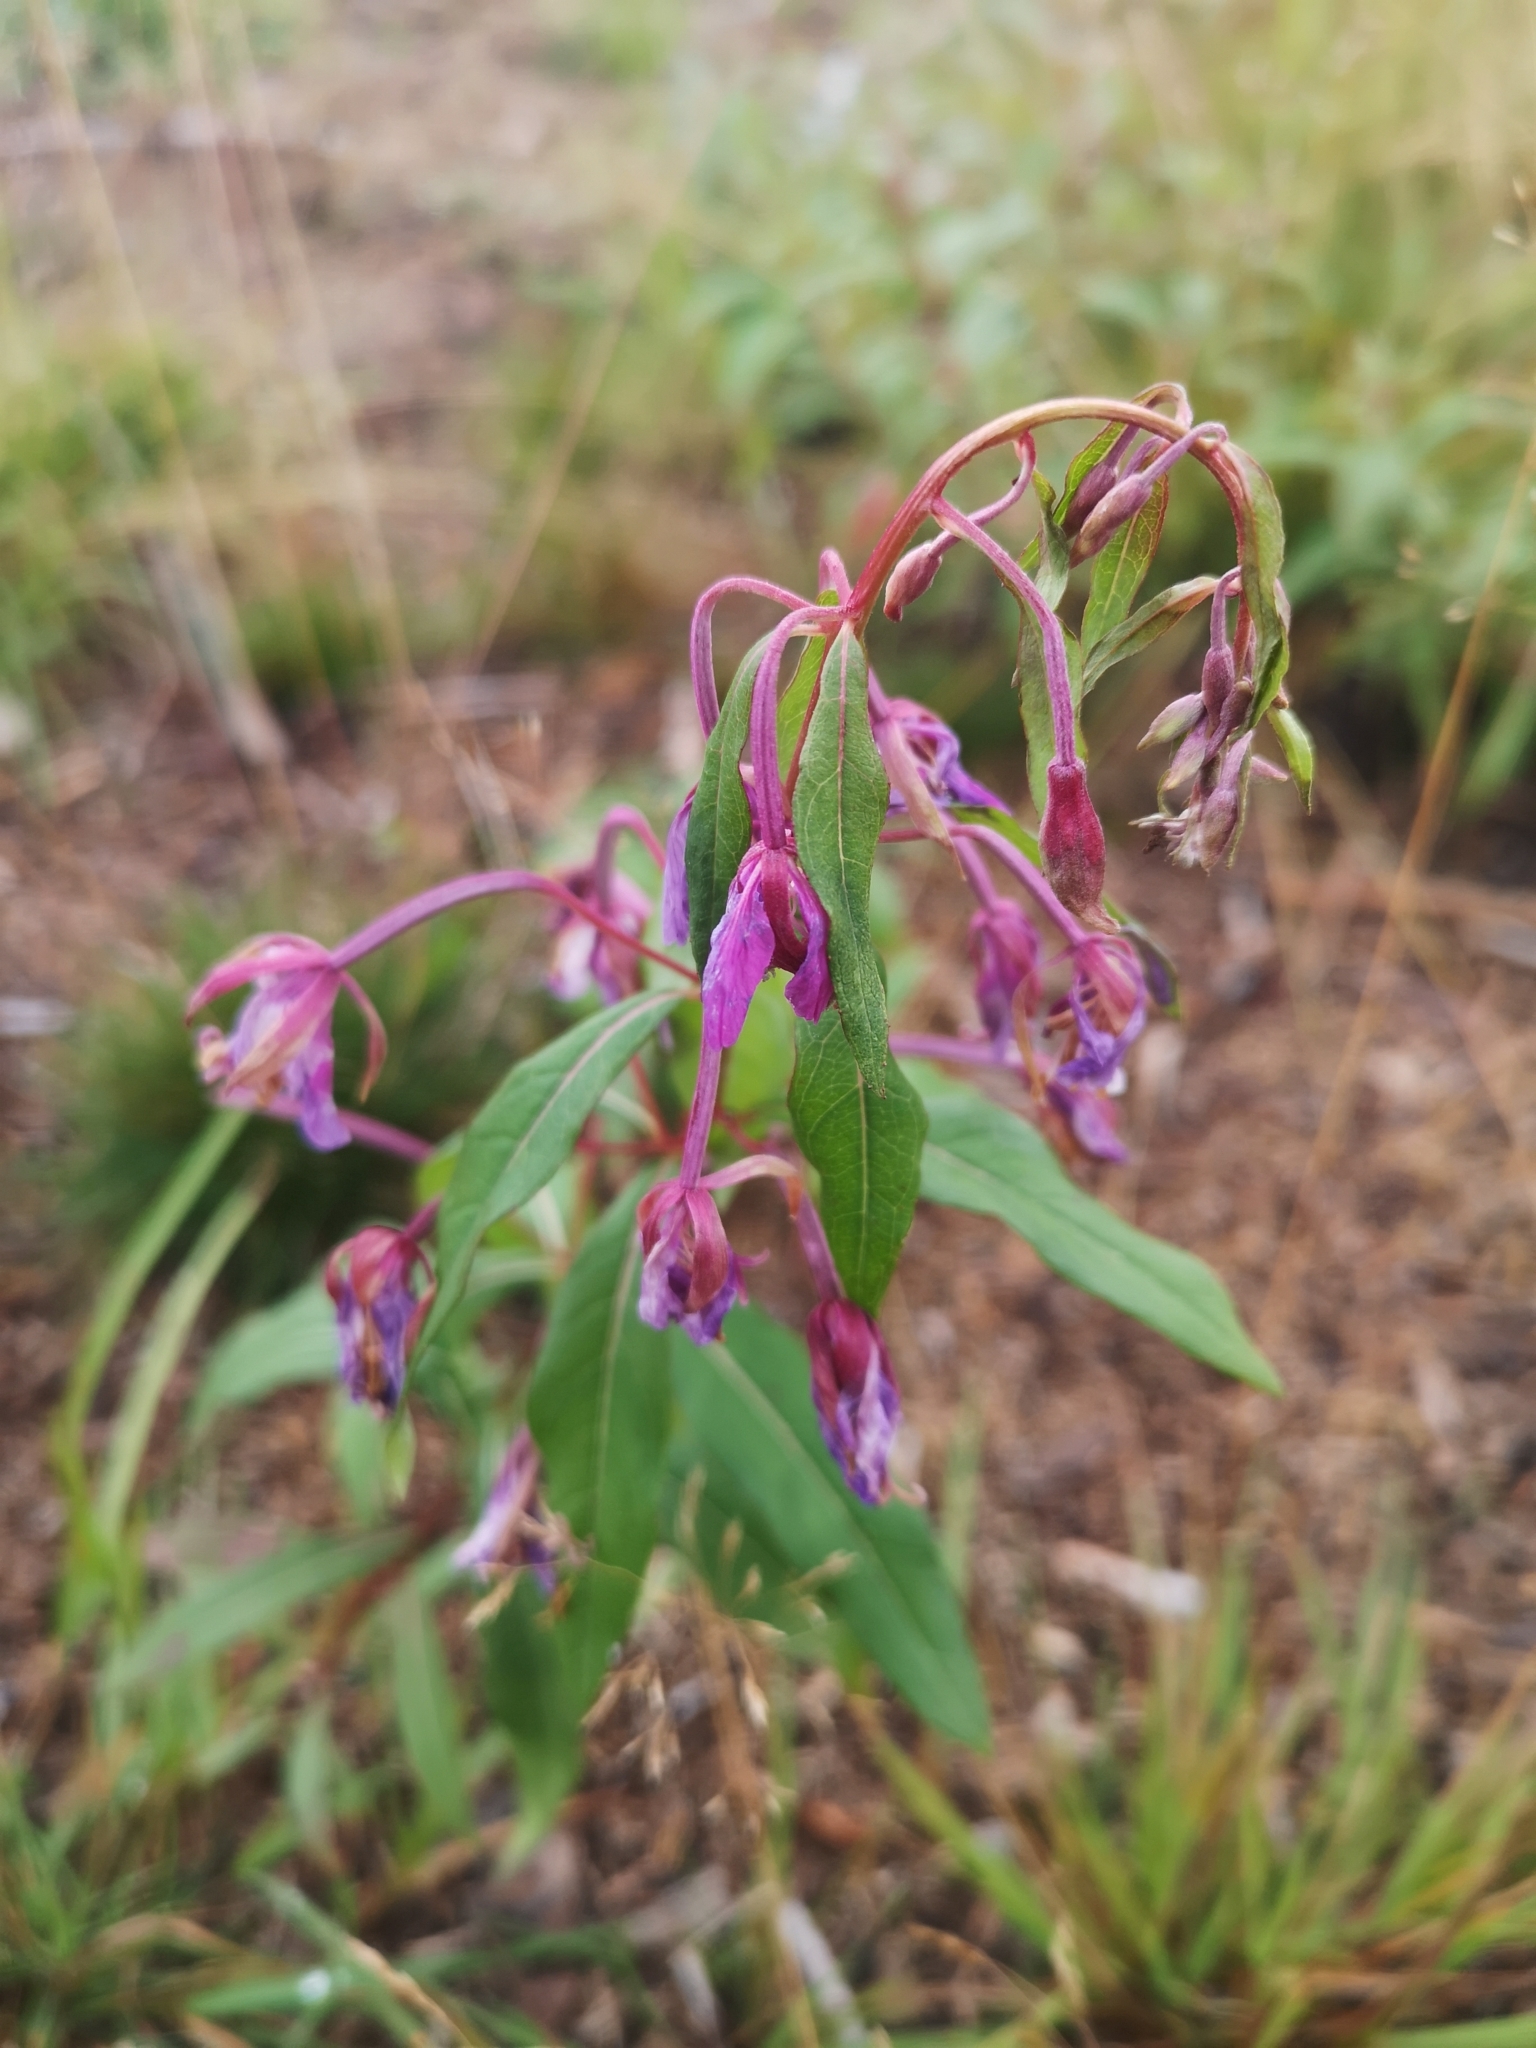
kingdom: Plantae
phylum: Tracheophyta
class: Magnoliopsida
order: Myrtales
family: Onagraceae
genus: Chamaenerion
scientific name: Chamaenerion angustifolium
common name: Fireweed
